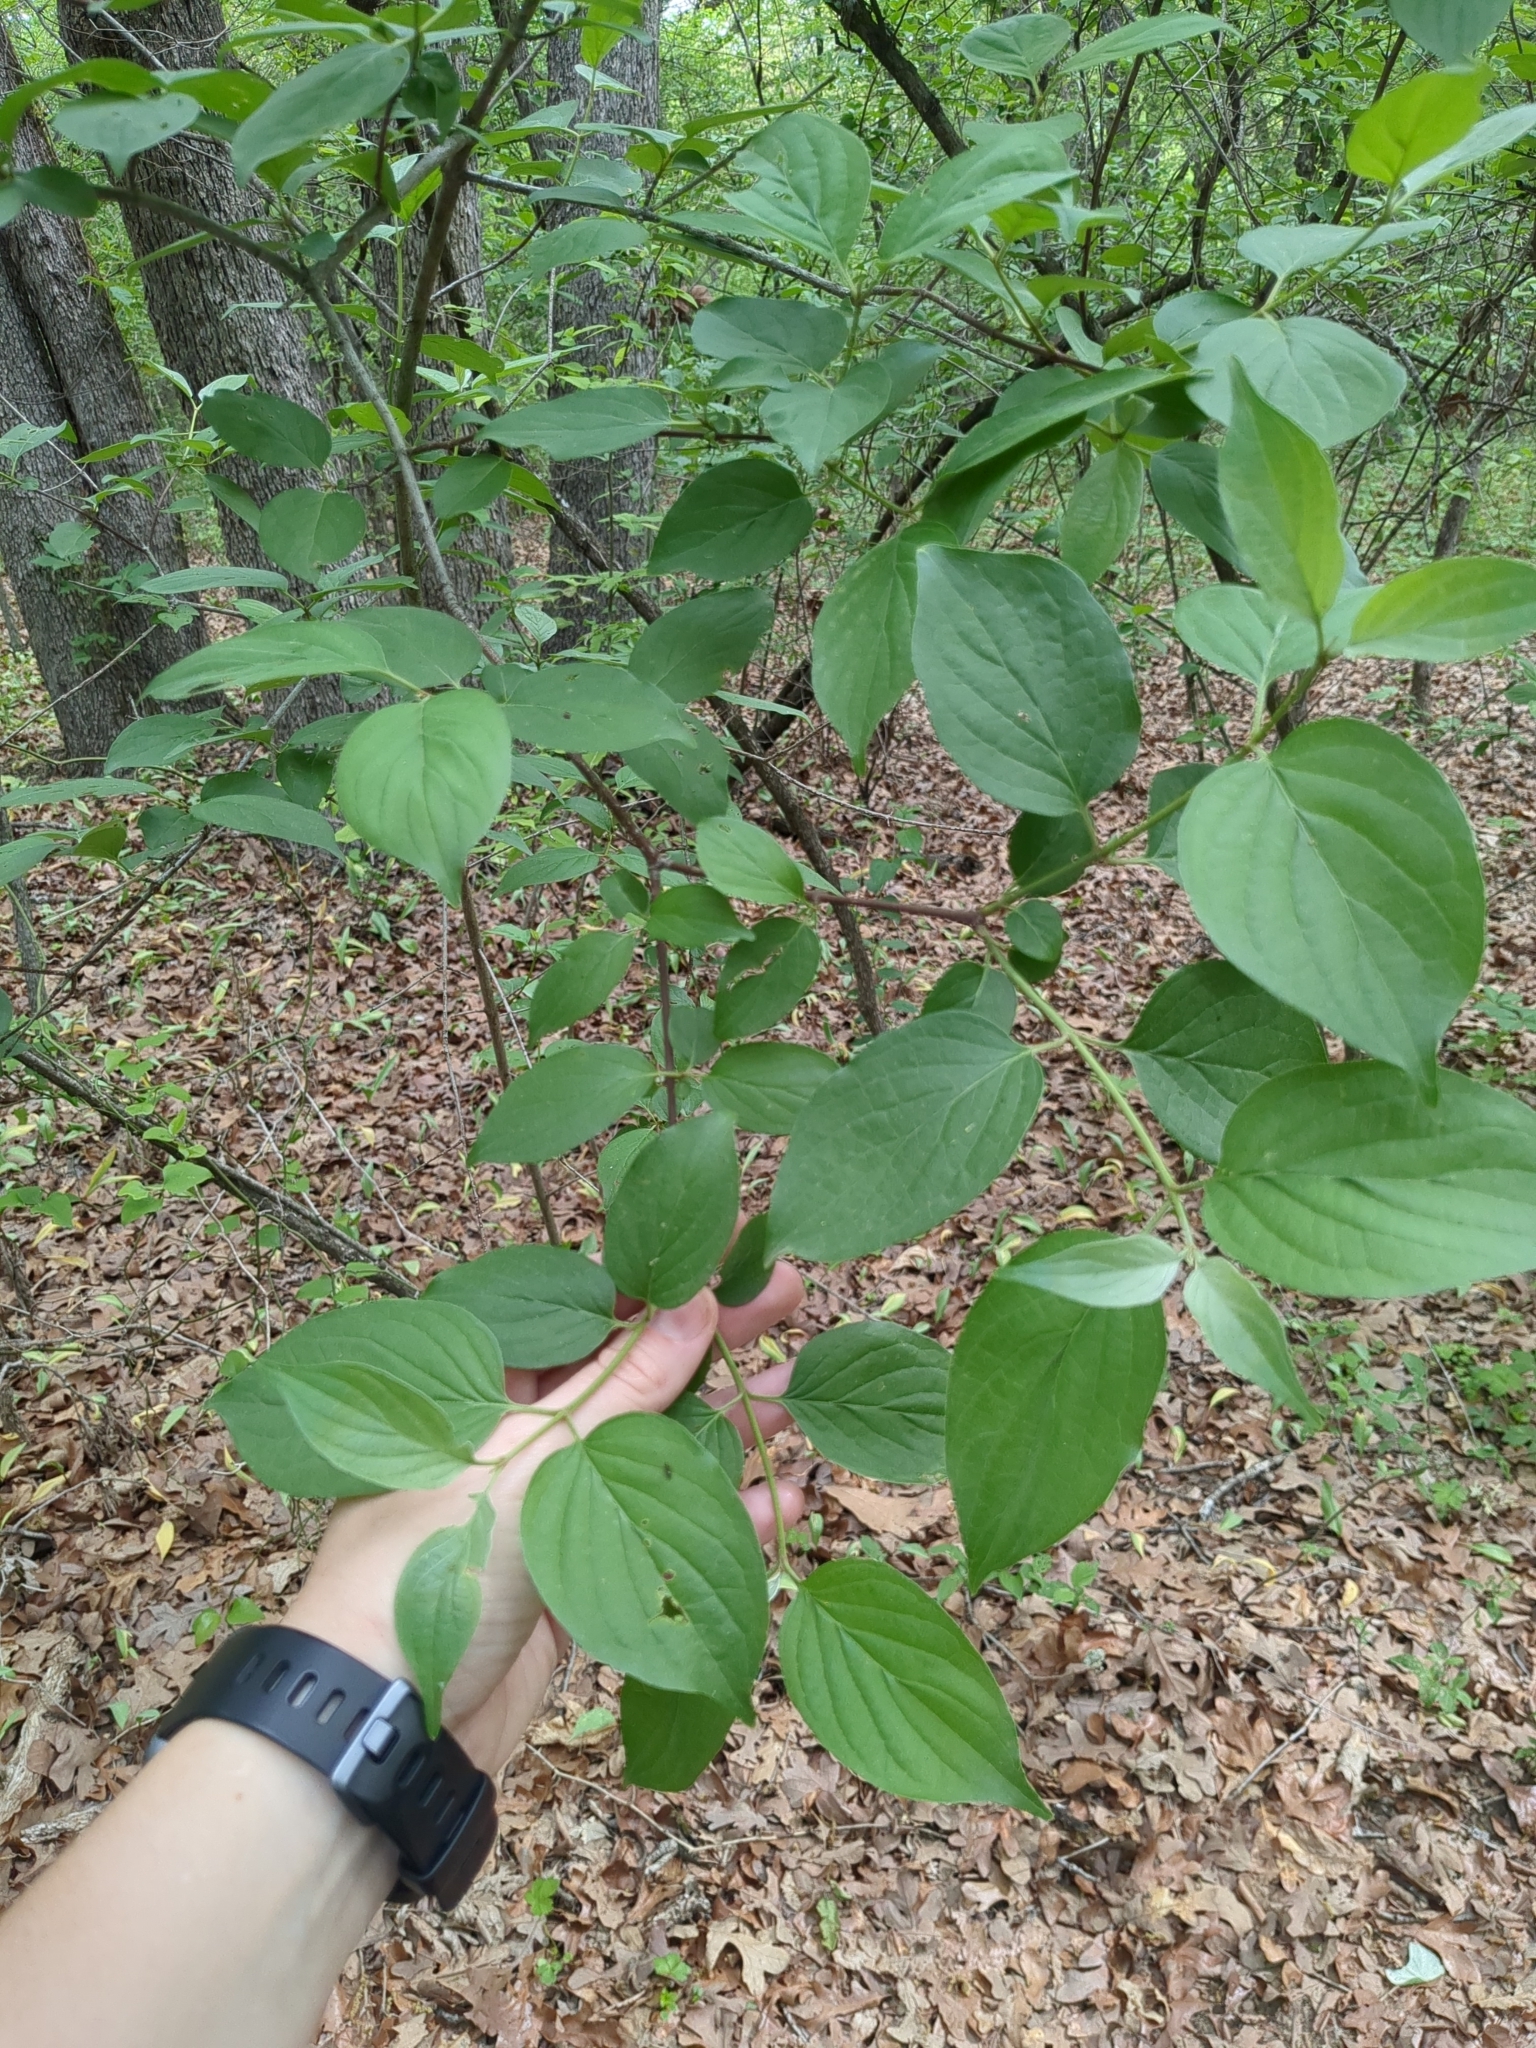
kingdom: Plantae
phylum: Tracheophyta
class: Magnoliopsida
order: Cornales
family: Cornaceae
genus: Cornus
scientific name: Cornus drummondii
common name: Rough-leaf dogwood
